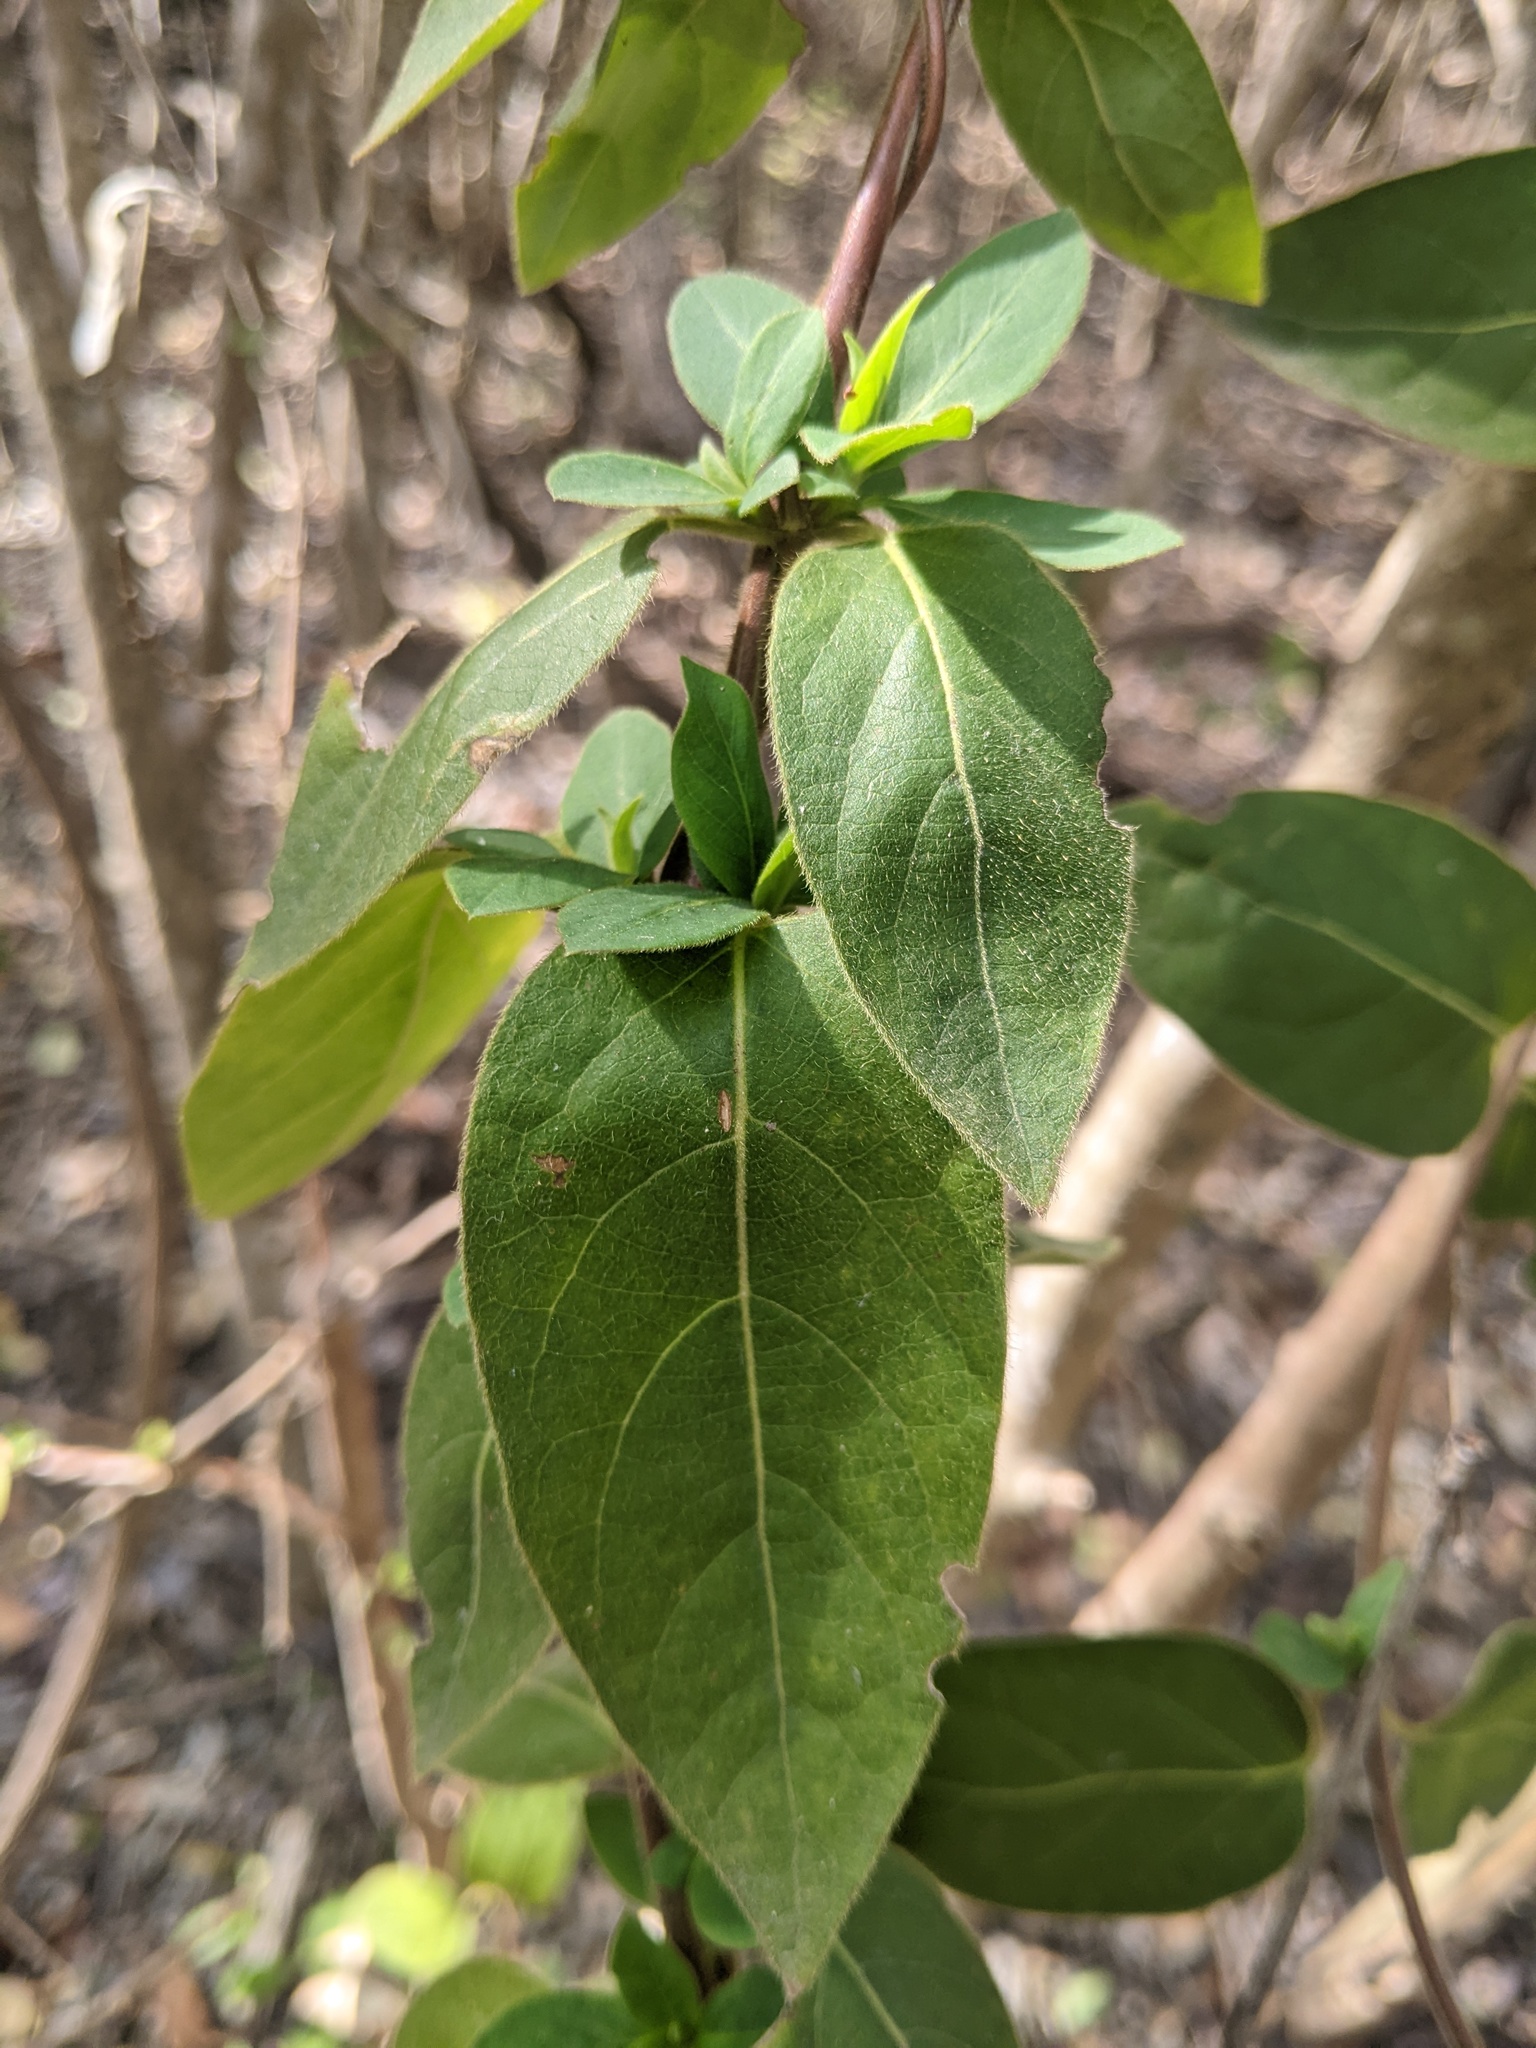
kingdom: Plantae
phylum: Tracheophyta
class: Magnoliopsida
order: Dipsacales
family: Caprifoliaceae
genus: Lonicera
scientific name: Lonicera japonica
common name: Japanese honeysuckle
